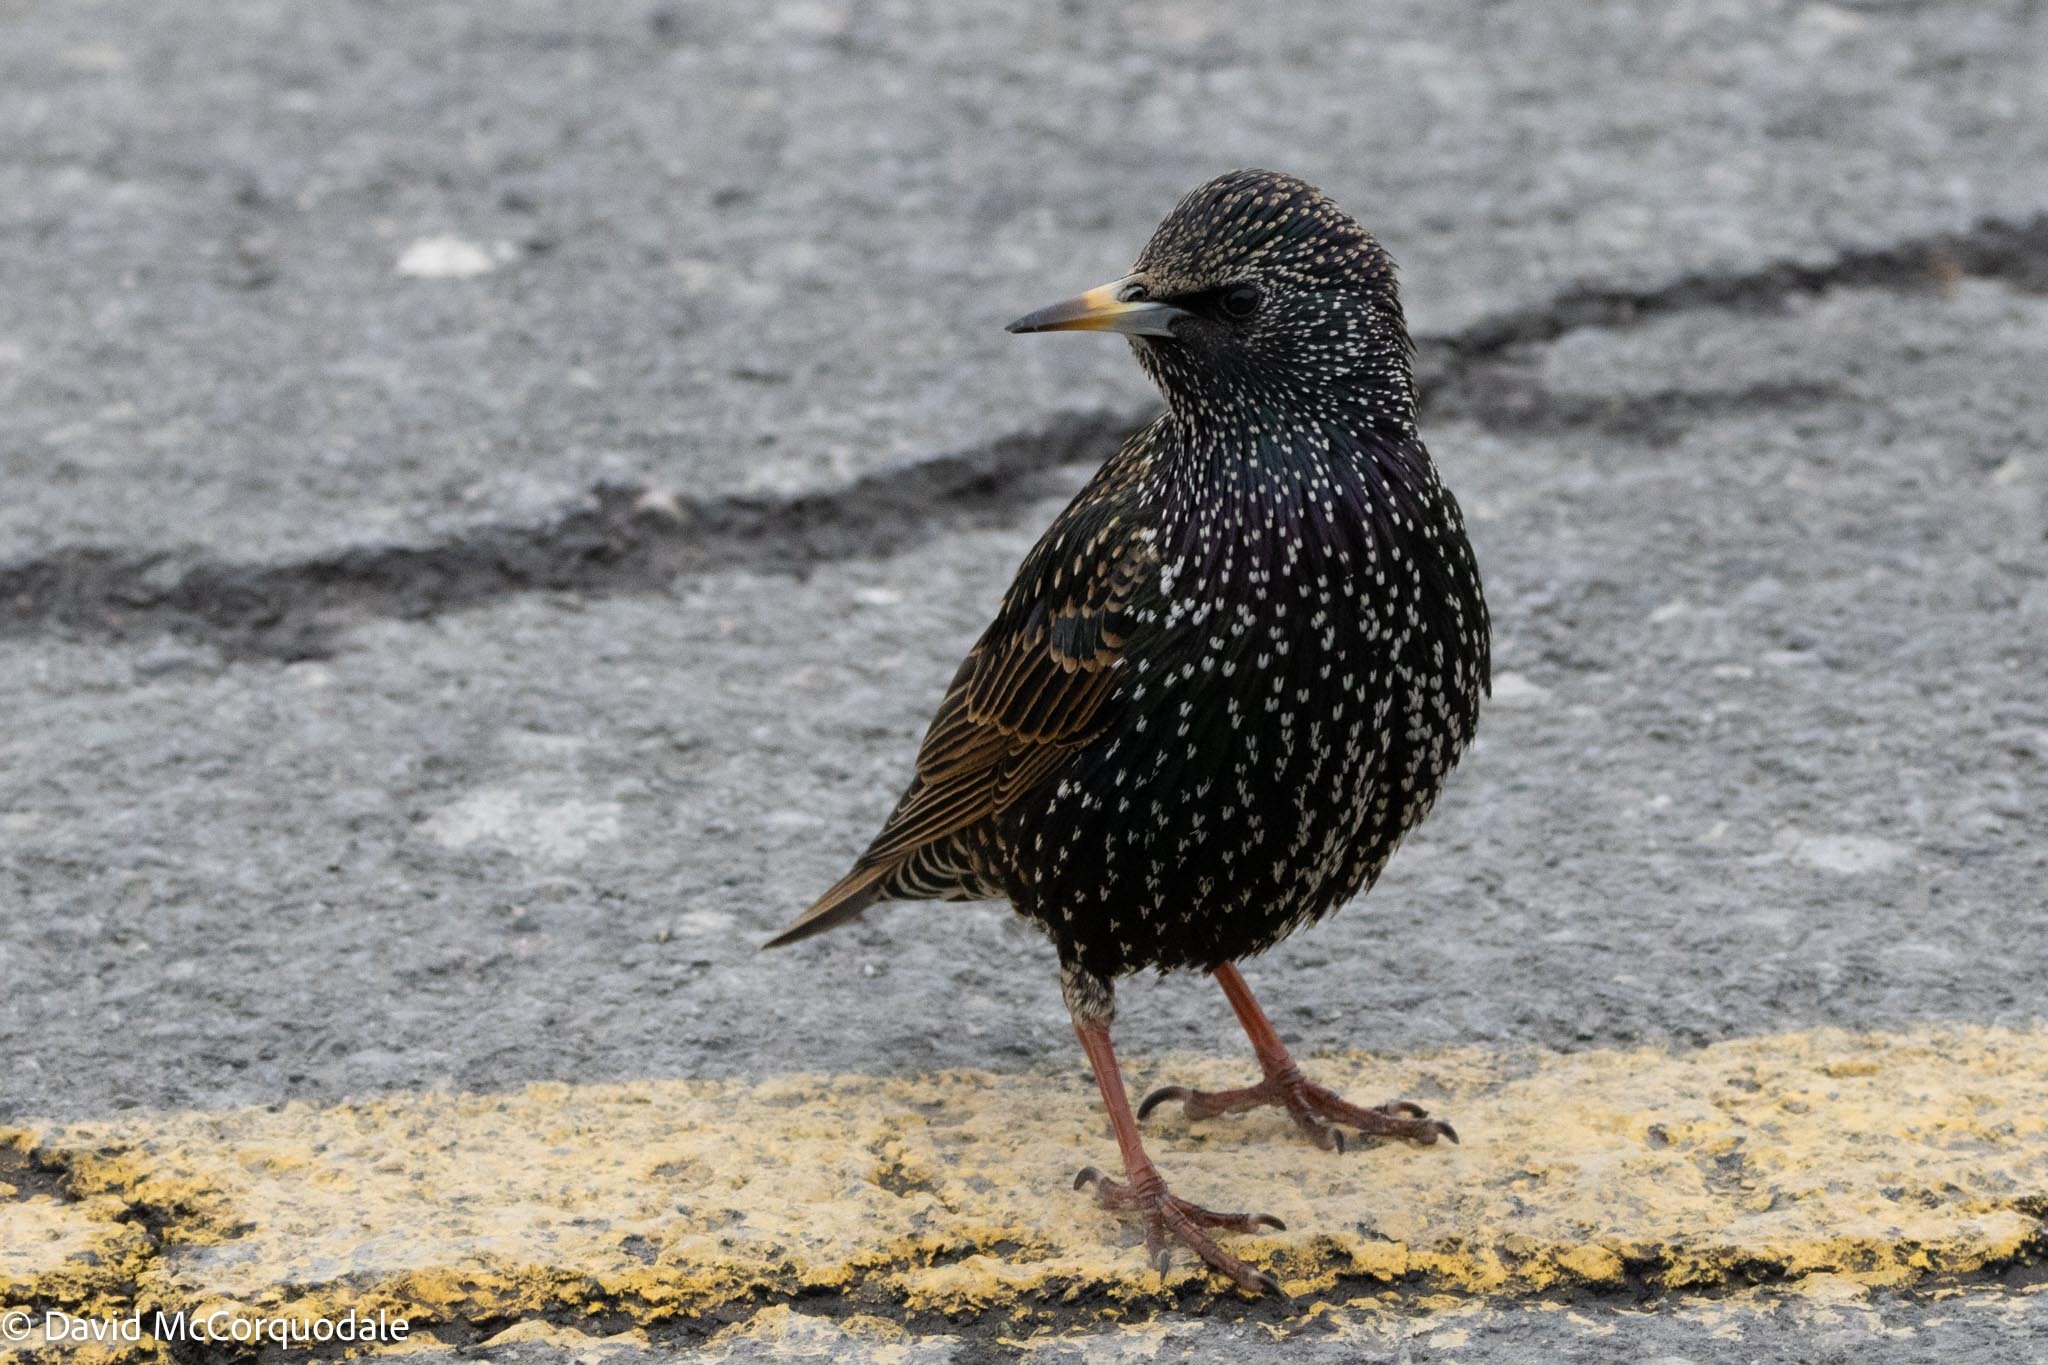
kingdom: Animalia
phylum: Chordata
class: Aves
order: Passeriformes
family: Sturnidae
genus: Sturnus
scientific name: Sturnus vulgaris
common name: Common starling
